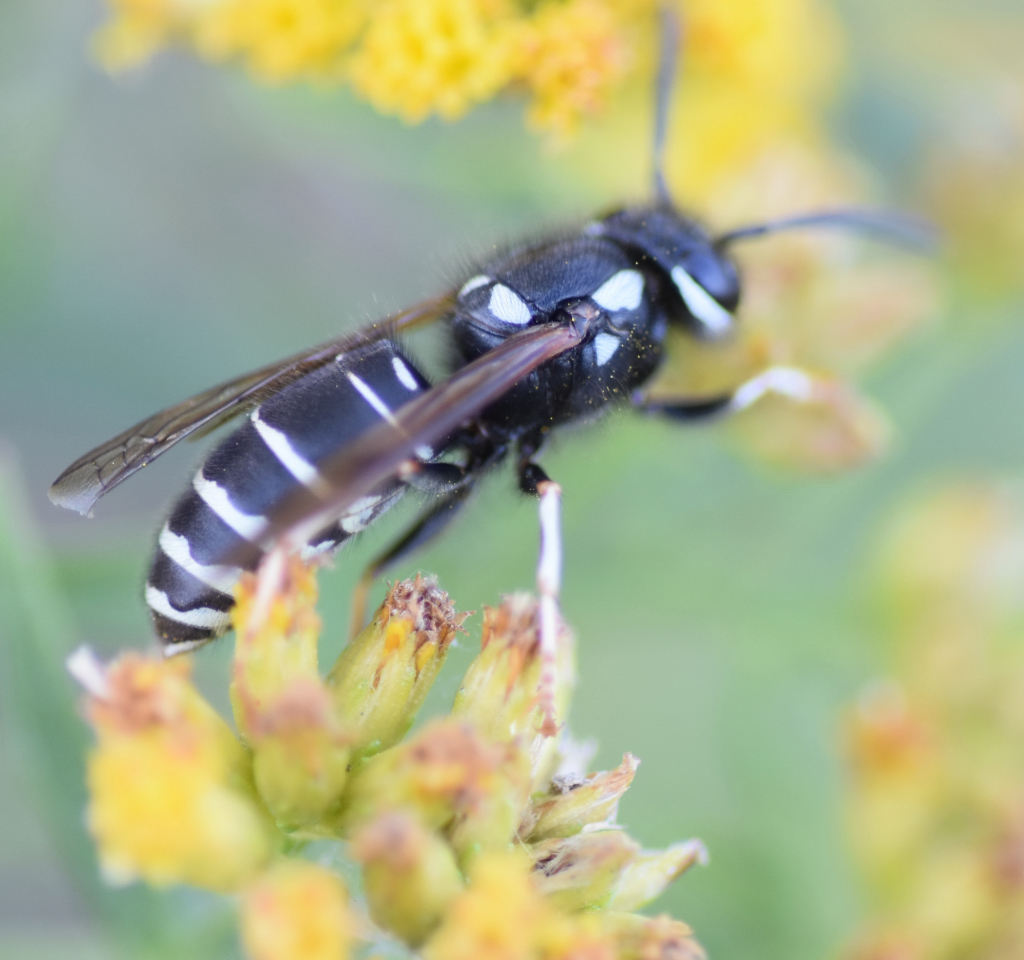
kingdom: Animalia
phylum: Arthropoda
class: Insecta
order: Hymenoptera
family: Vespidae
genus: Vespula
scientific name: Vespula consobrina
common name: Blackjacket
